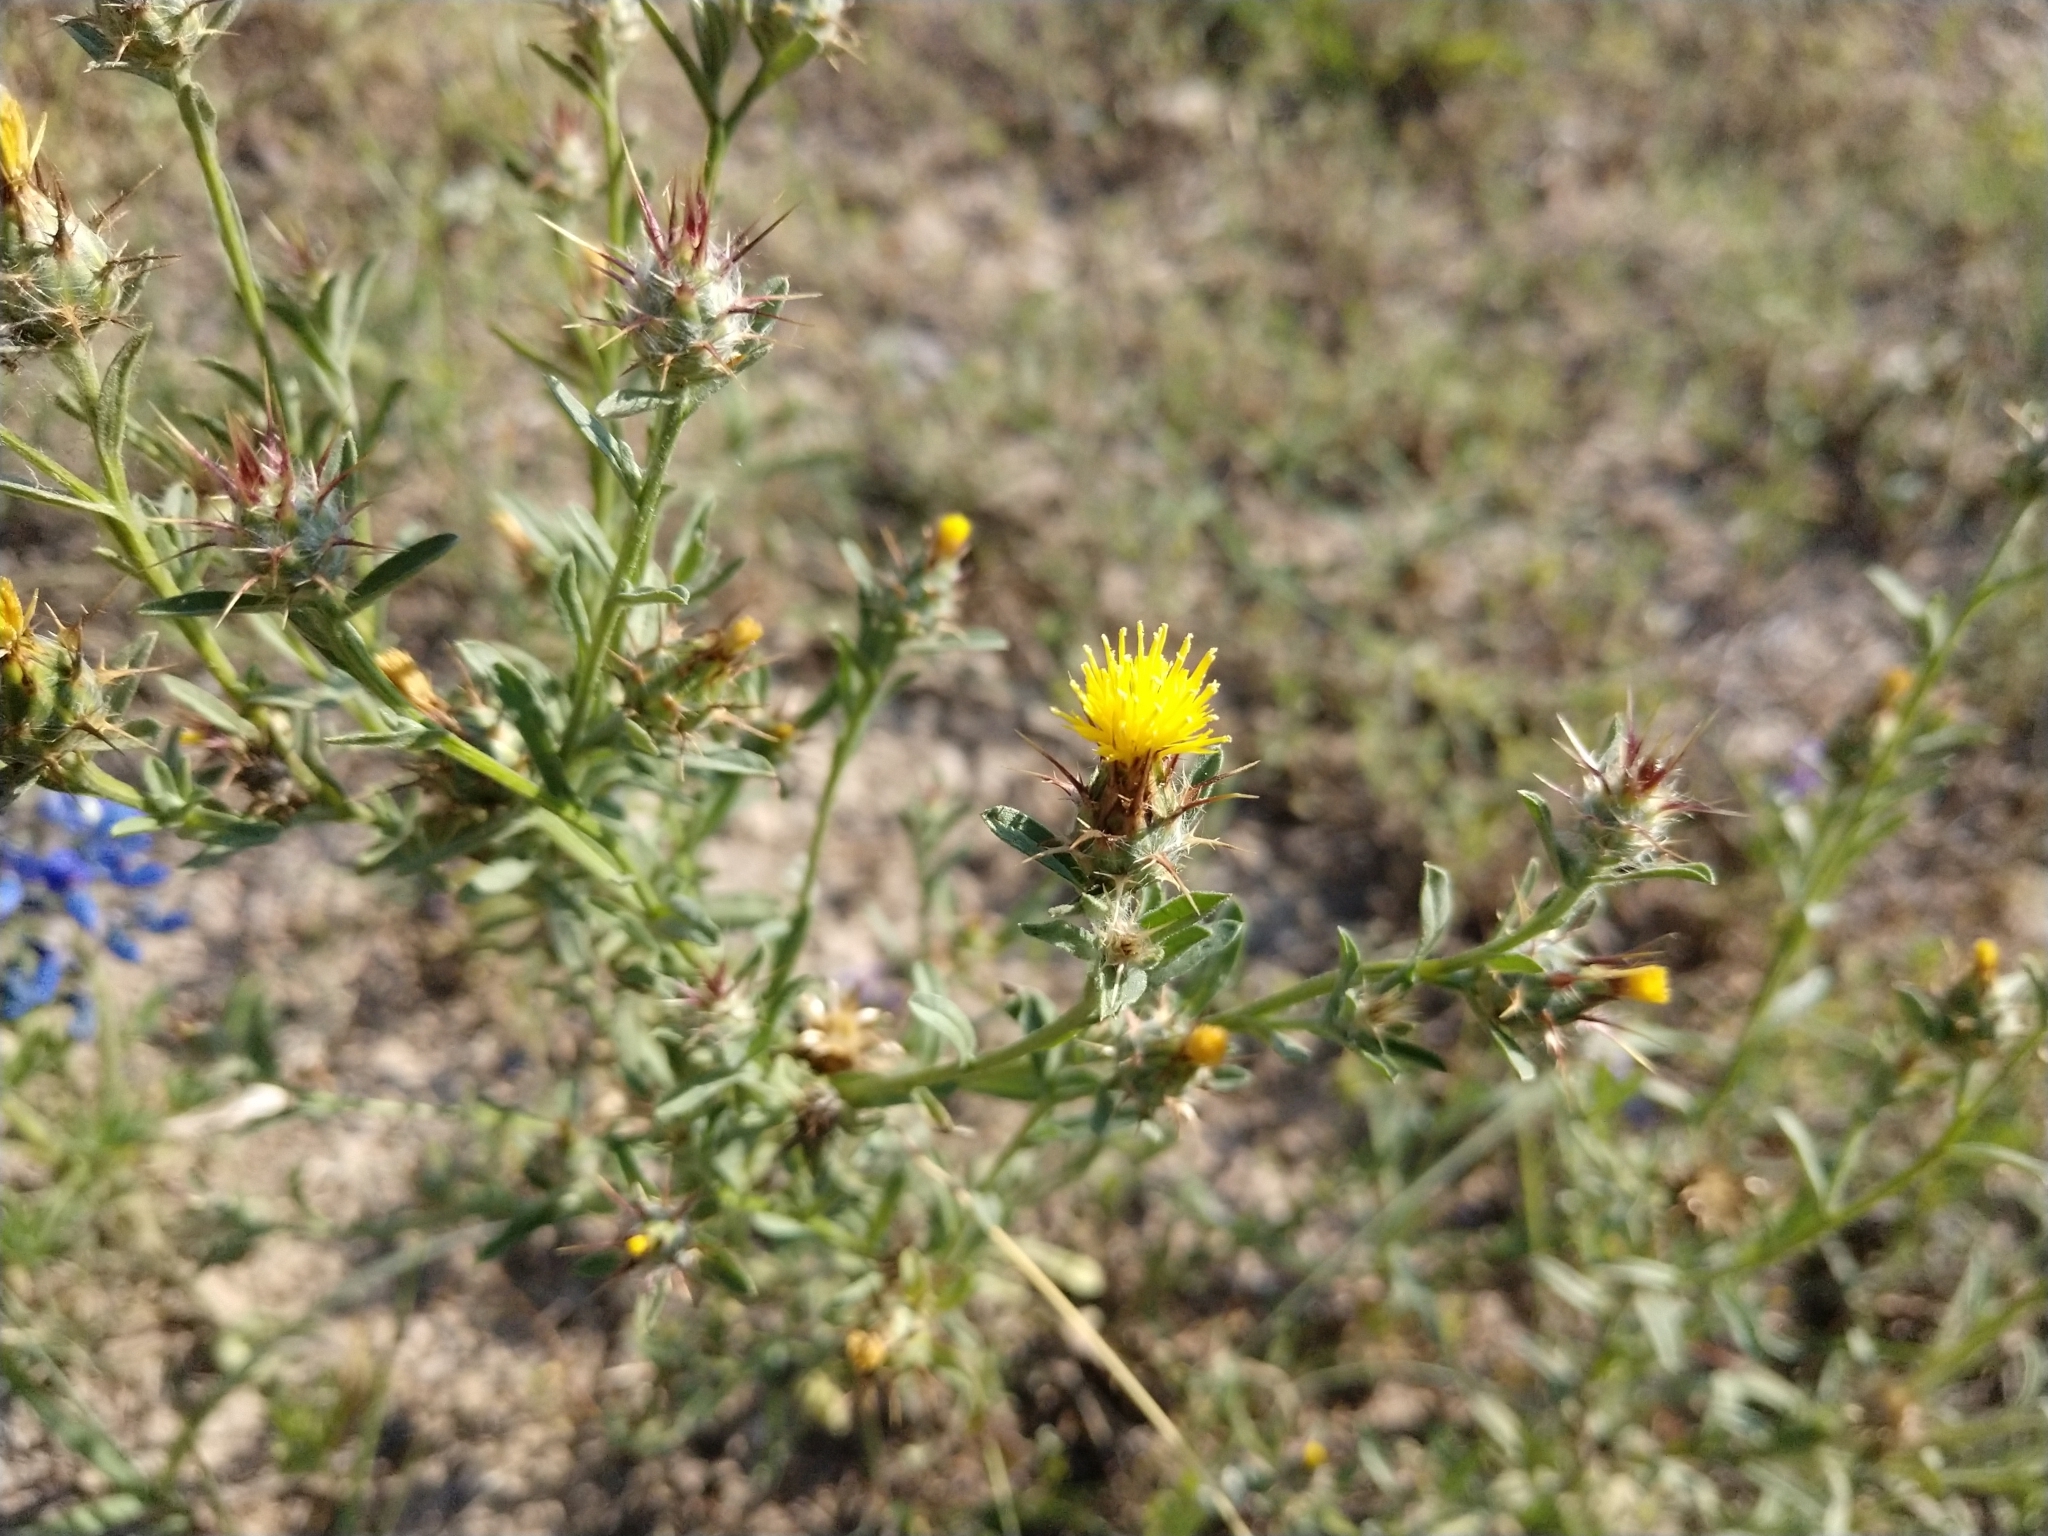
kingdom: Plantae
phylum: Tracheophyta
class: Magnoliopsida
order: Asterales
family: Asteraceae
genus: Centaurea
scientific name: Centaurea melitensis
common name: Maltese star-thistle
